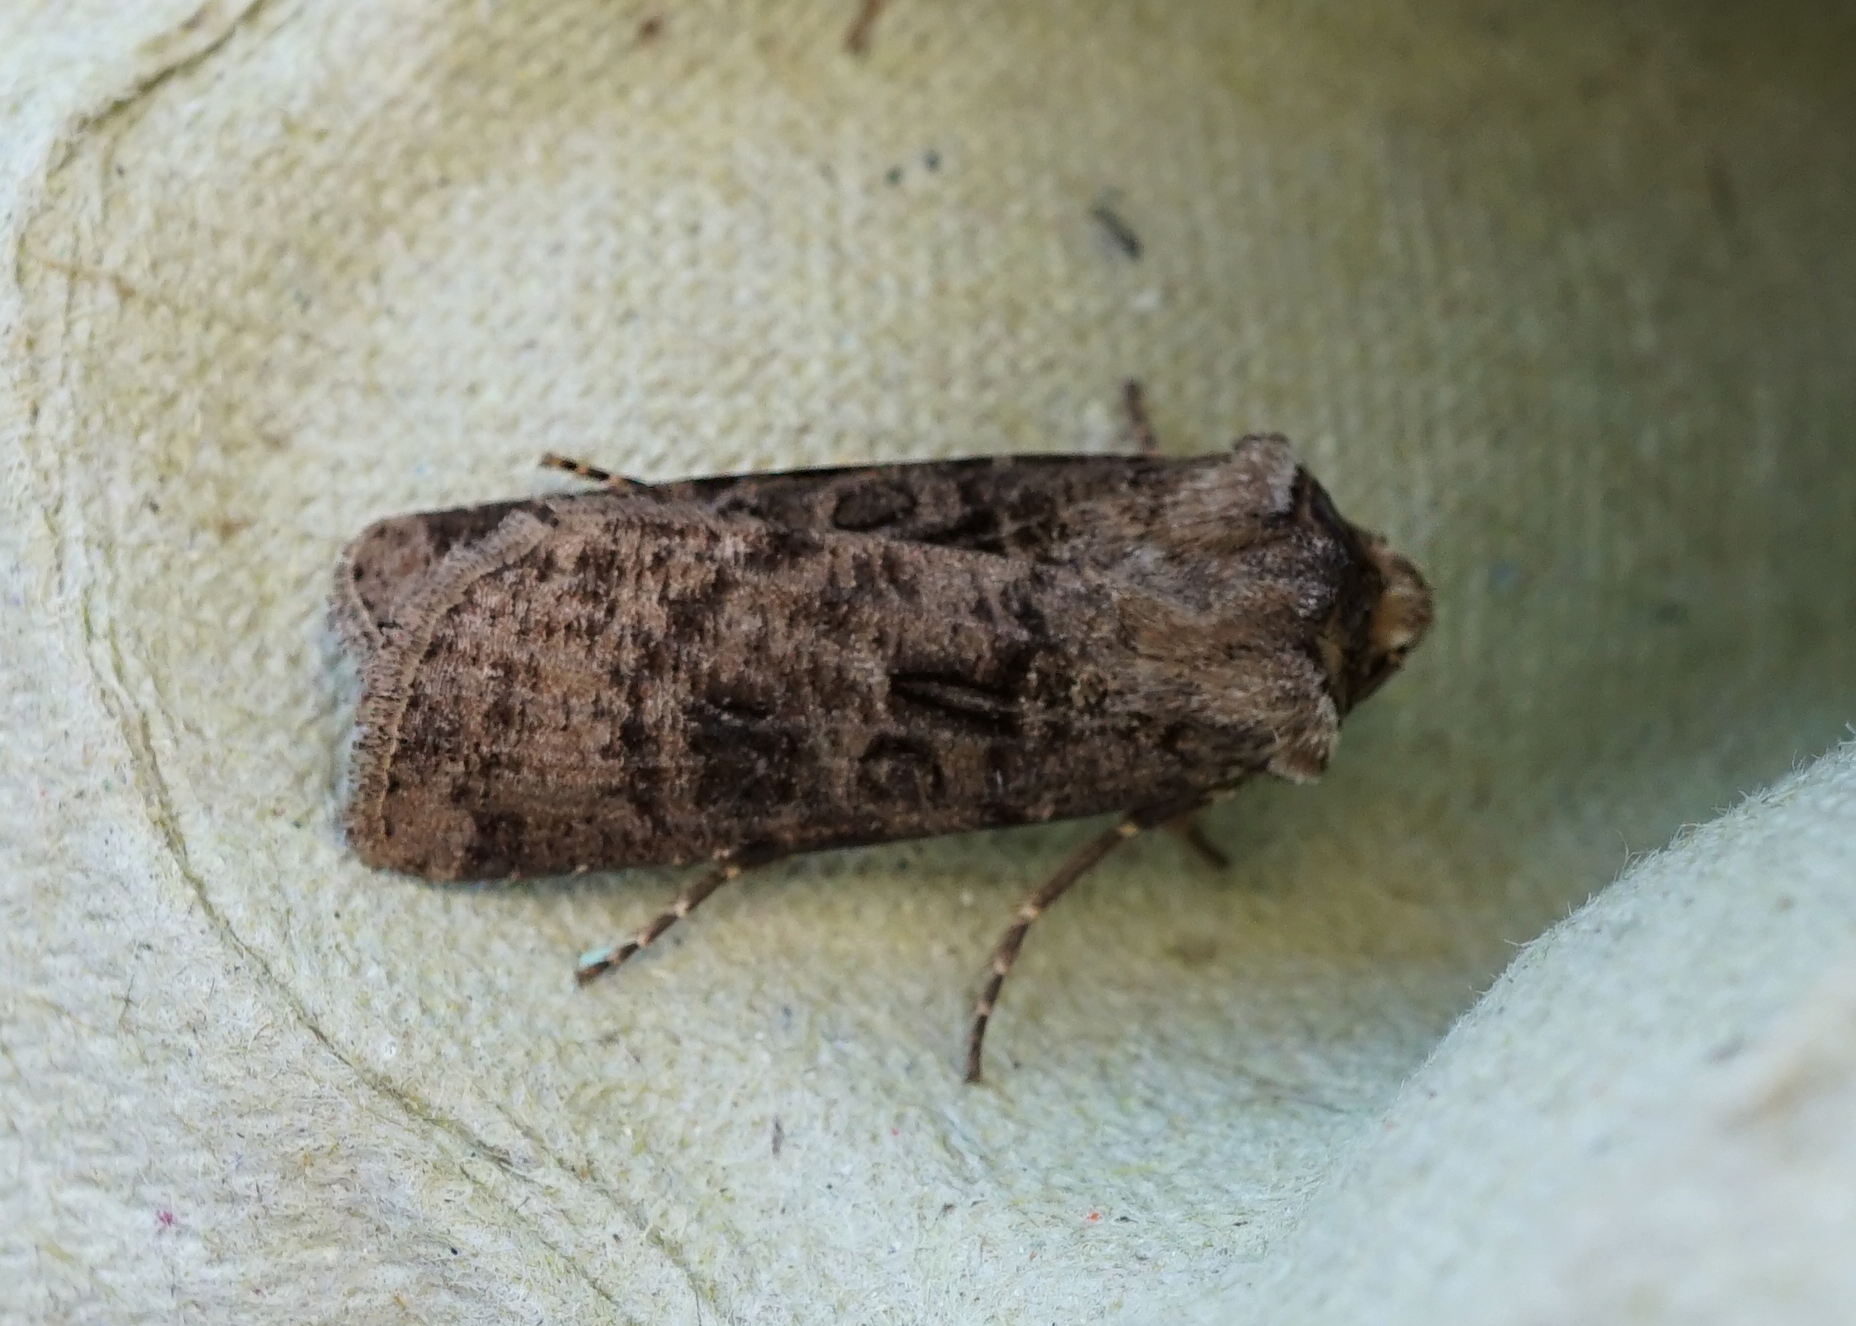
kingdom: Animalia
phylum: Arthropoda
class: Insecta
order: Lepidoptera
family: Noctuidae
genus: Agrotis
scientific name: Agrotis clavis
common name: Heart and club
